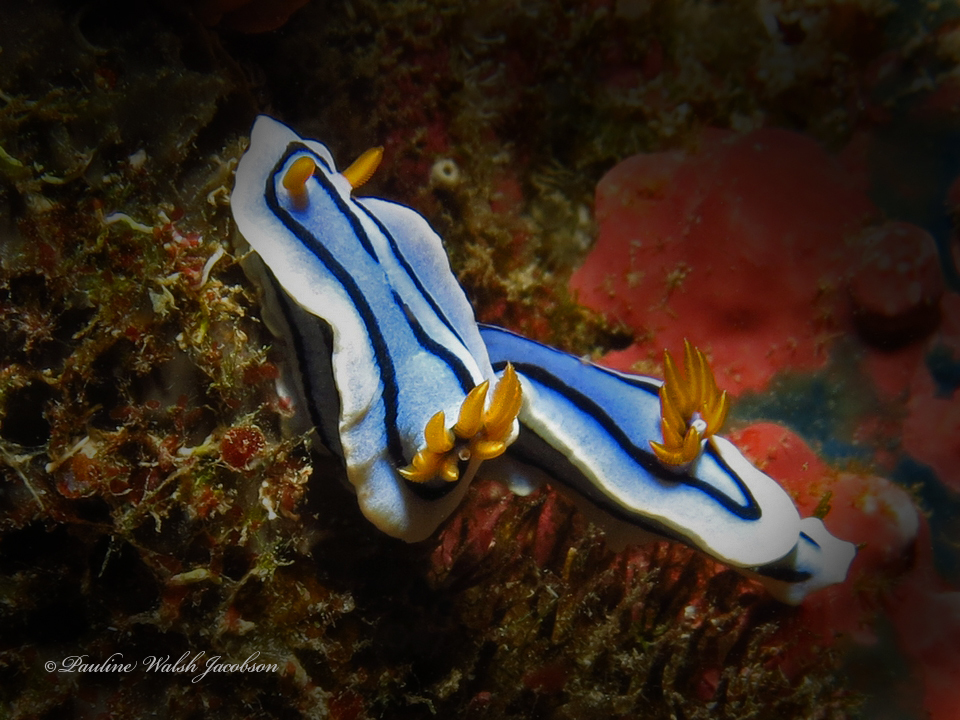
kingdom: Animalia
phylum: Mollusca
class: Gastropoda
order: Nudibranchia
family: Chromodorididae
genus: Chromodoris
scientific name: Chromodoris lochi
